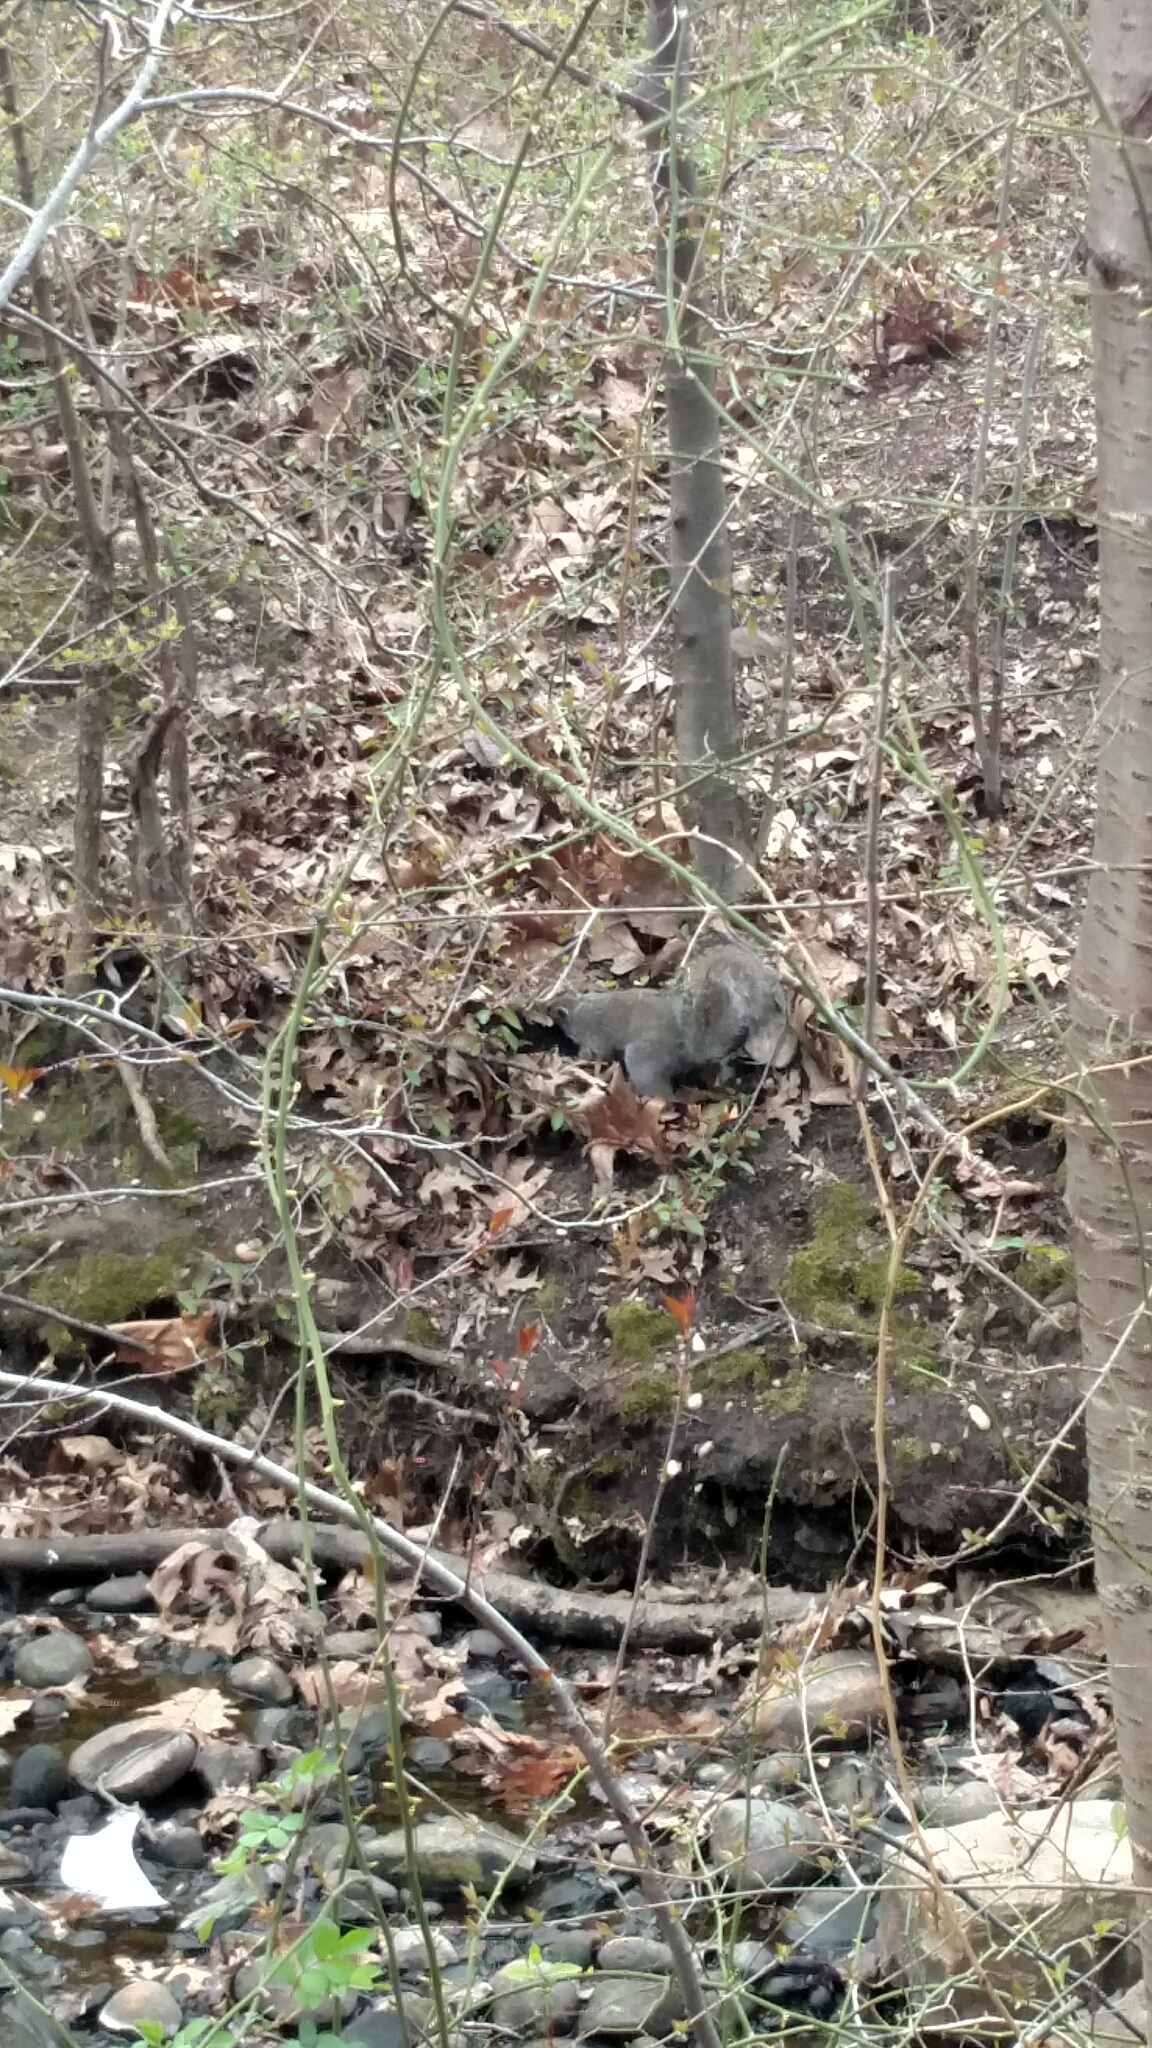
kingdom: Animalia
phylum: Chordata
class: Mammalia
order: Rodentia
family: Sciuridae
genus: Sciurus
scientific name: Sciurus carolinensis
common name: Eastern gray squirrel
